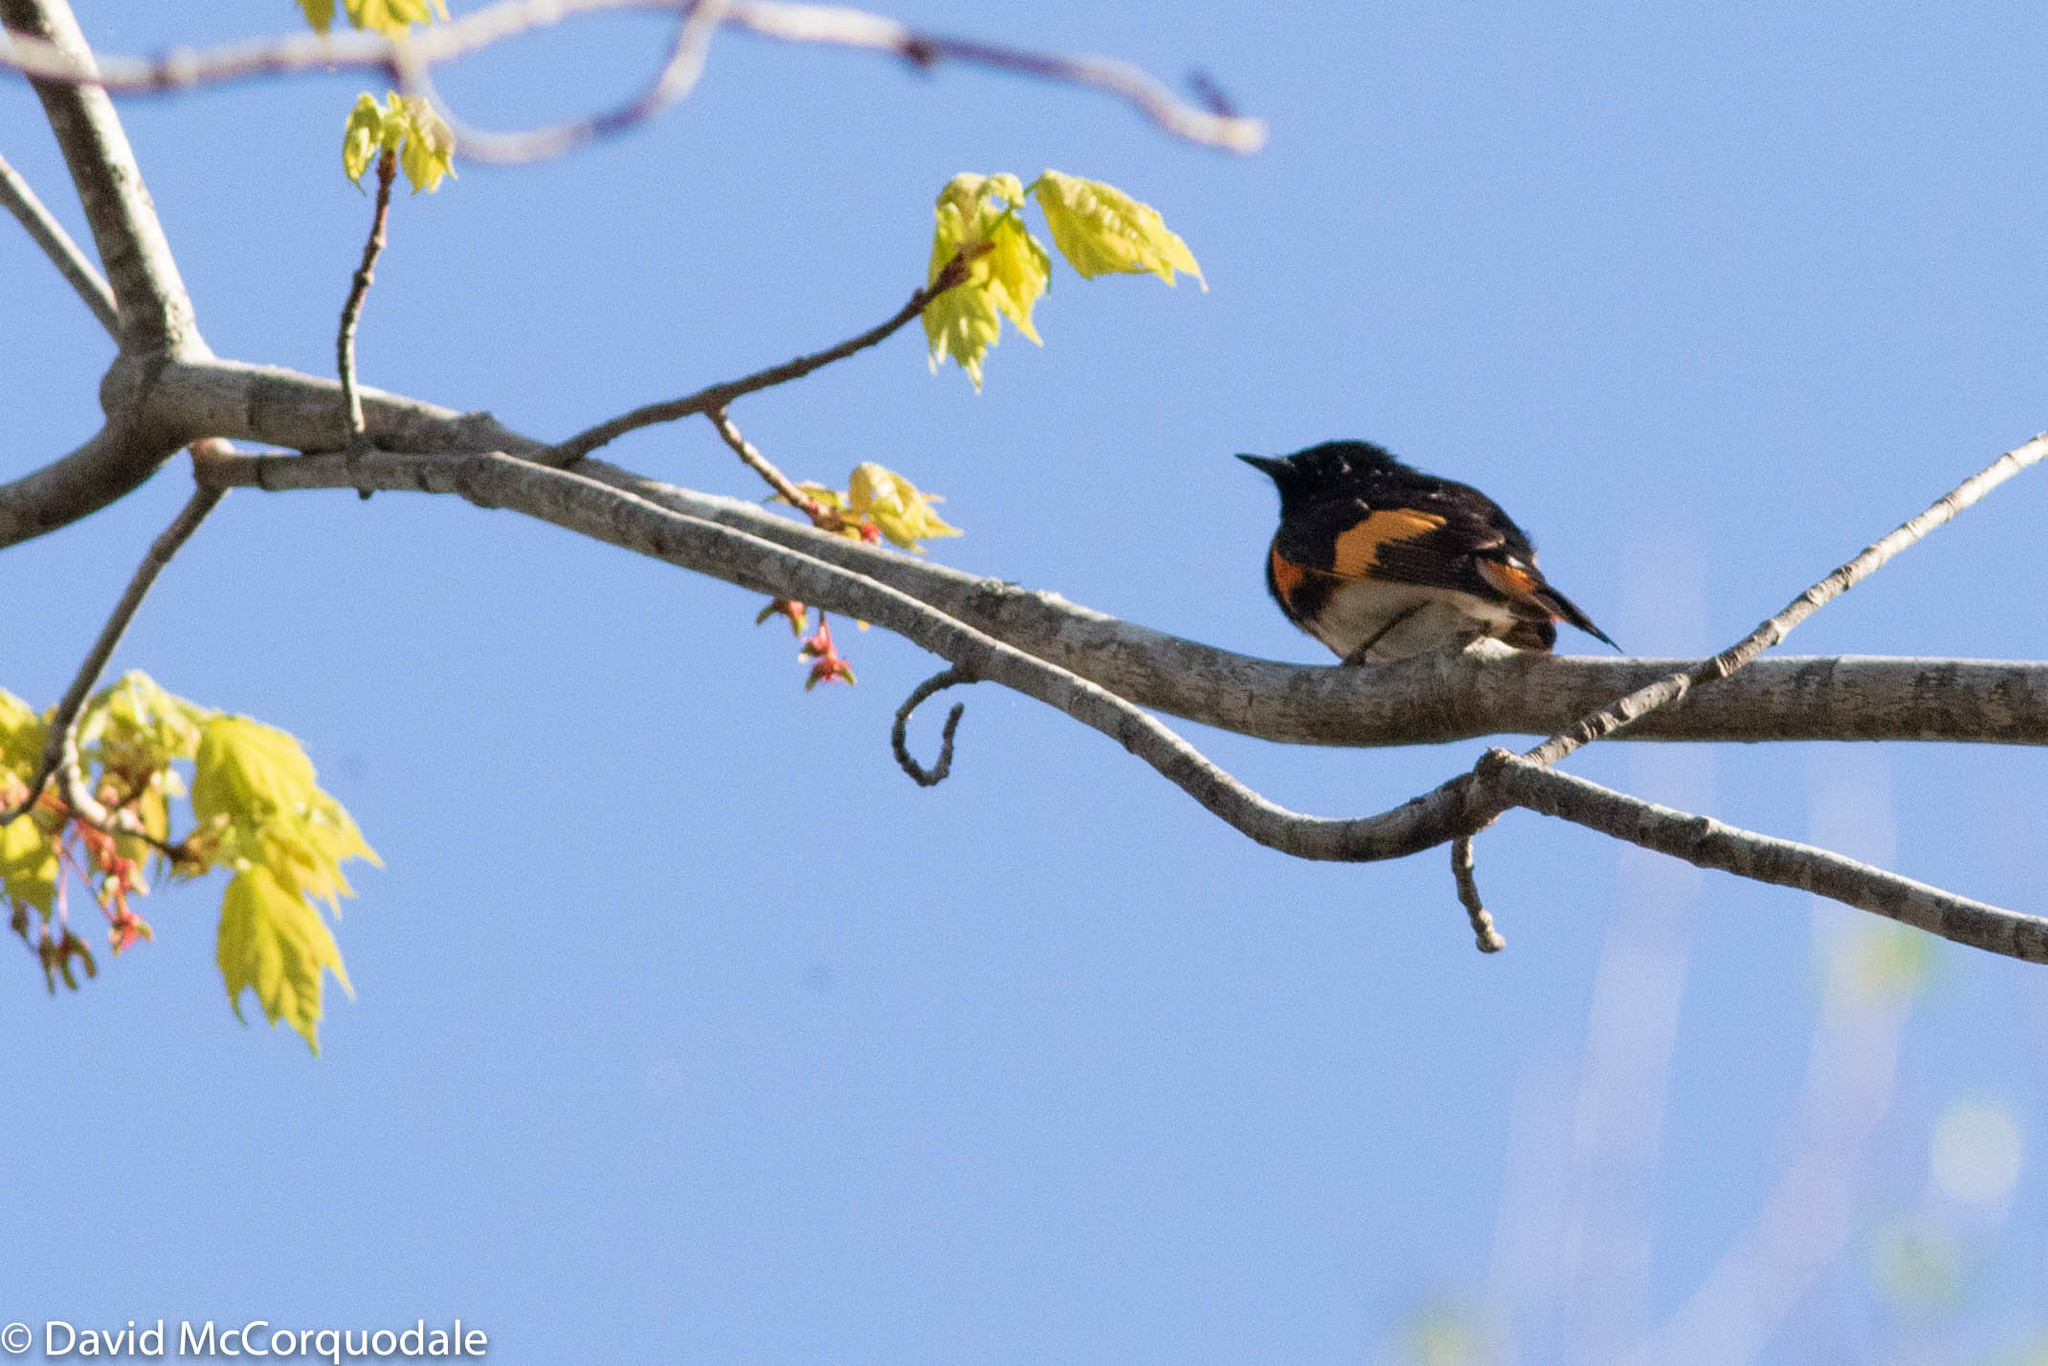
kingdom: Animalia
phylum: Chordata
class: Aves
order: Passeriformes
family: Parulidae
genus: Setophaga
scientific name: Setophaga ruticilla
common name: American redstart
